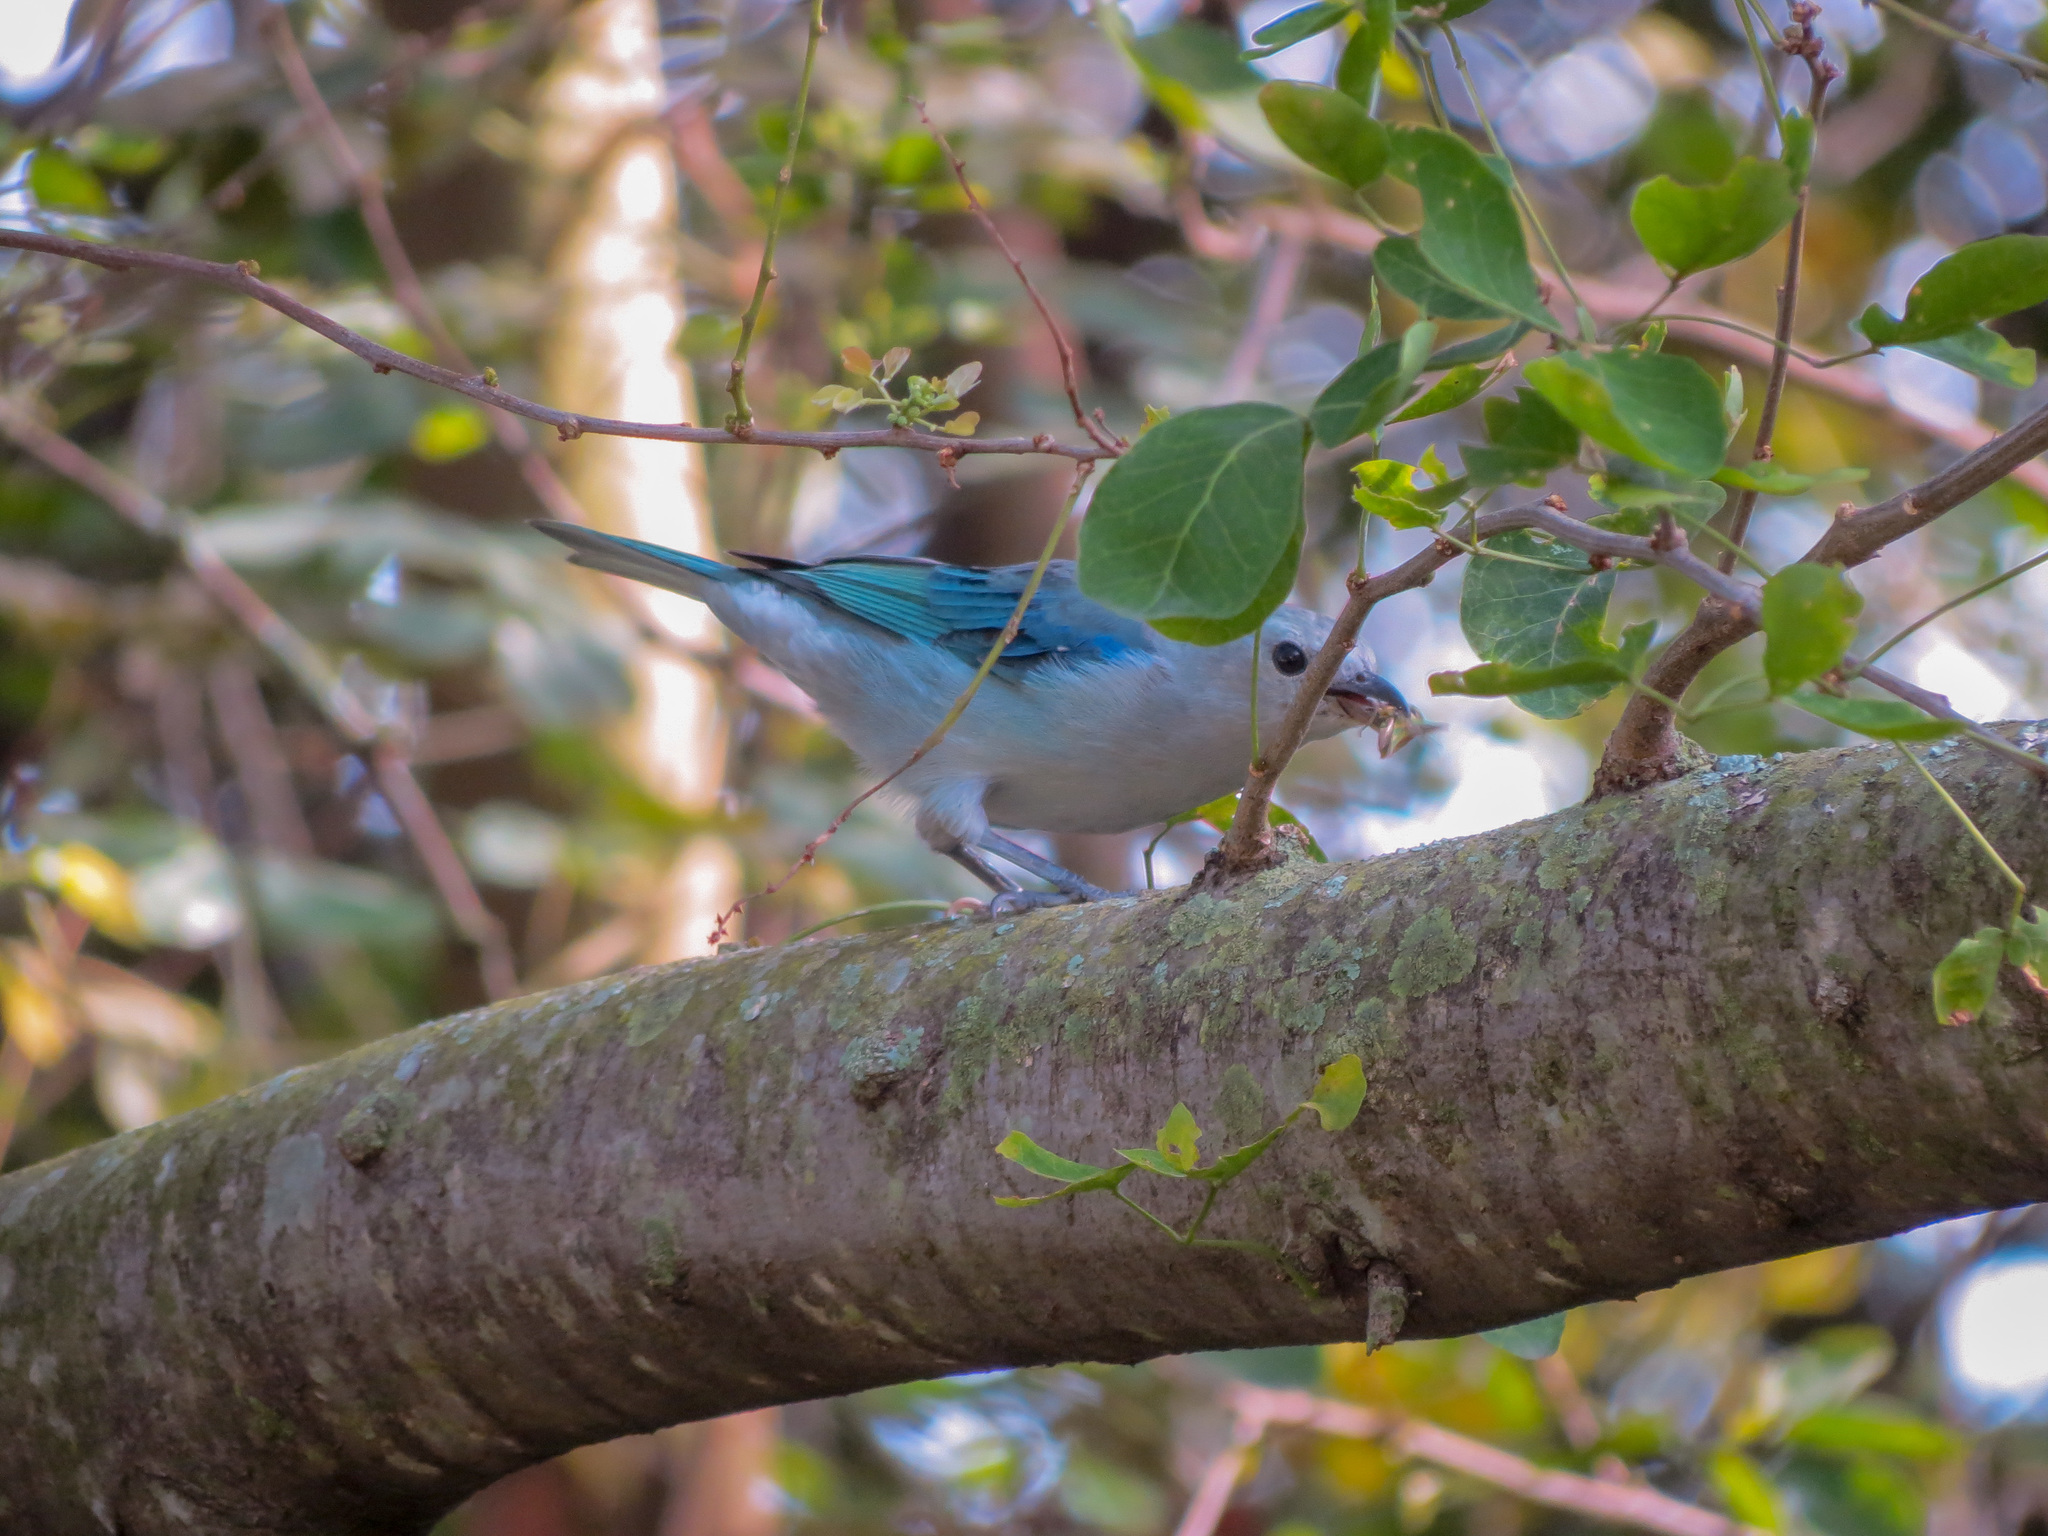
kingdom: Animalia
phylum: Chordata
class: Aves
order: Passeriformes
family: Thraupidae
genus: Thraupis
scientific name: Thraupis episcopus
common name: Blue-grey tanager
